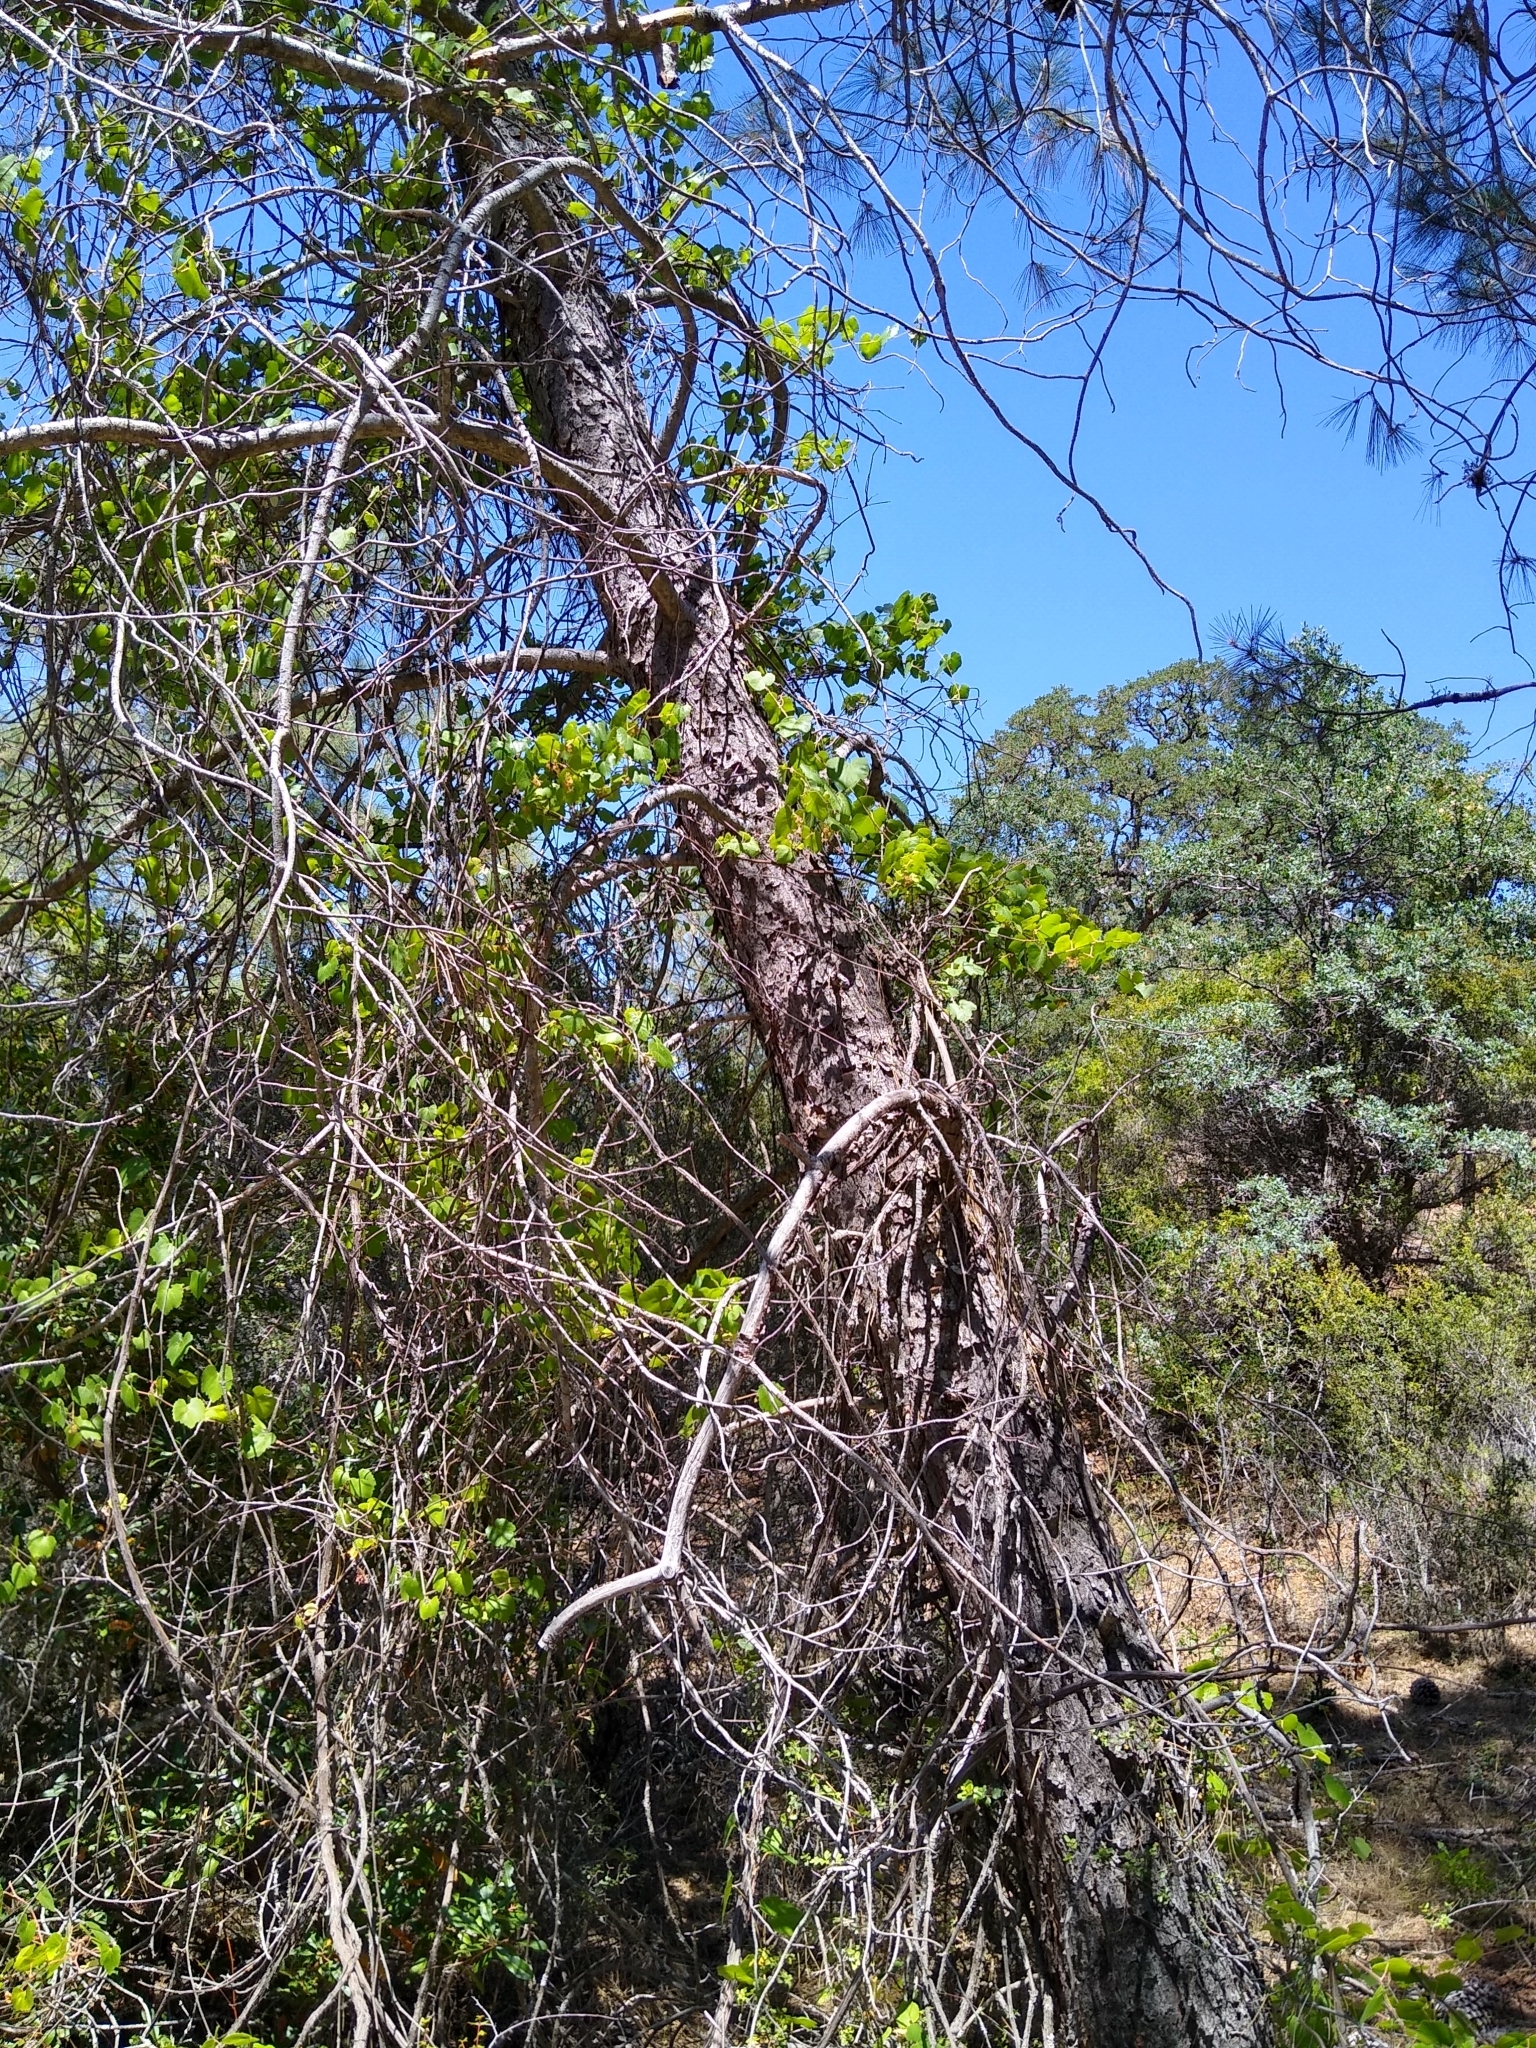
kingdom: Plantae
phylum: Tracheophyta
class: Magnoliopsida
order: Vitales
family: Vitaceae
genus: Vitis
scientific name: Vitis californica
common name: California wild grape
